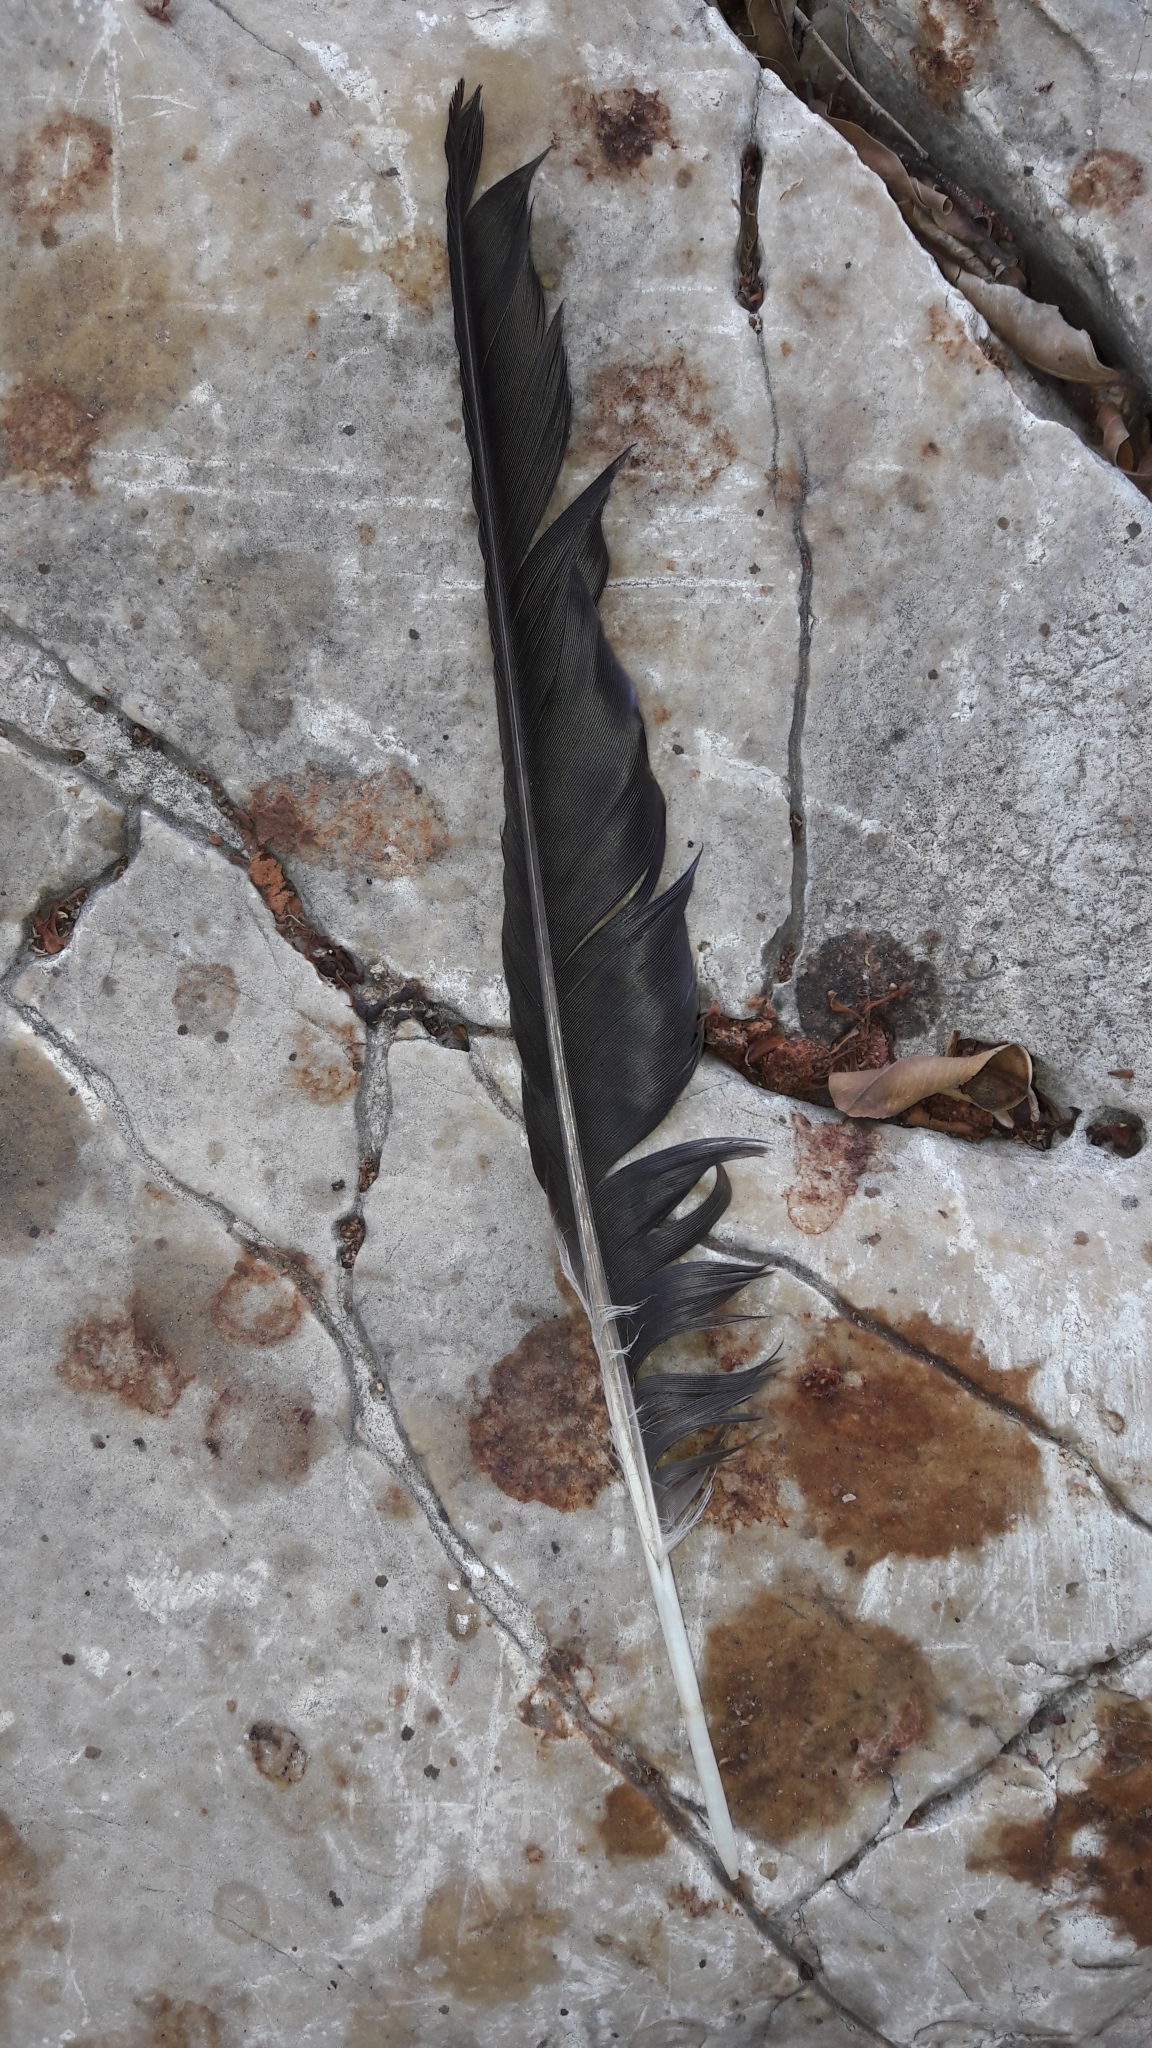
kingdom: Animalia
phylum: Chordata
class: Aves
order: Passeriformes
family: Corvidae
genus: Corvus
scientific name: Corvus cornix
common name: Hooded crow
